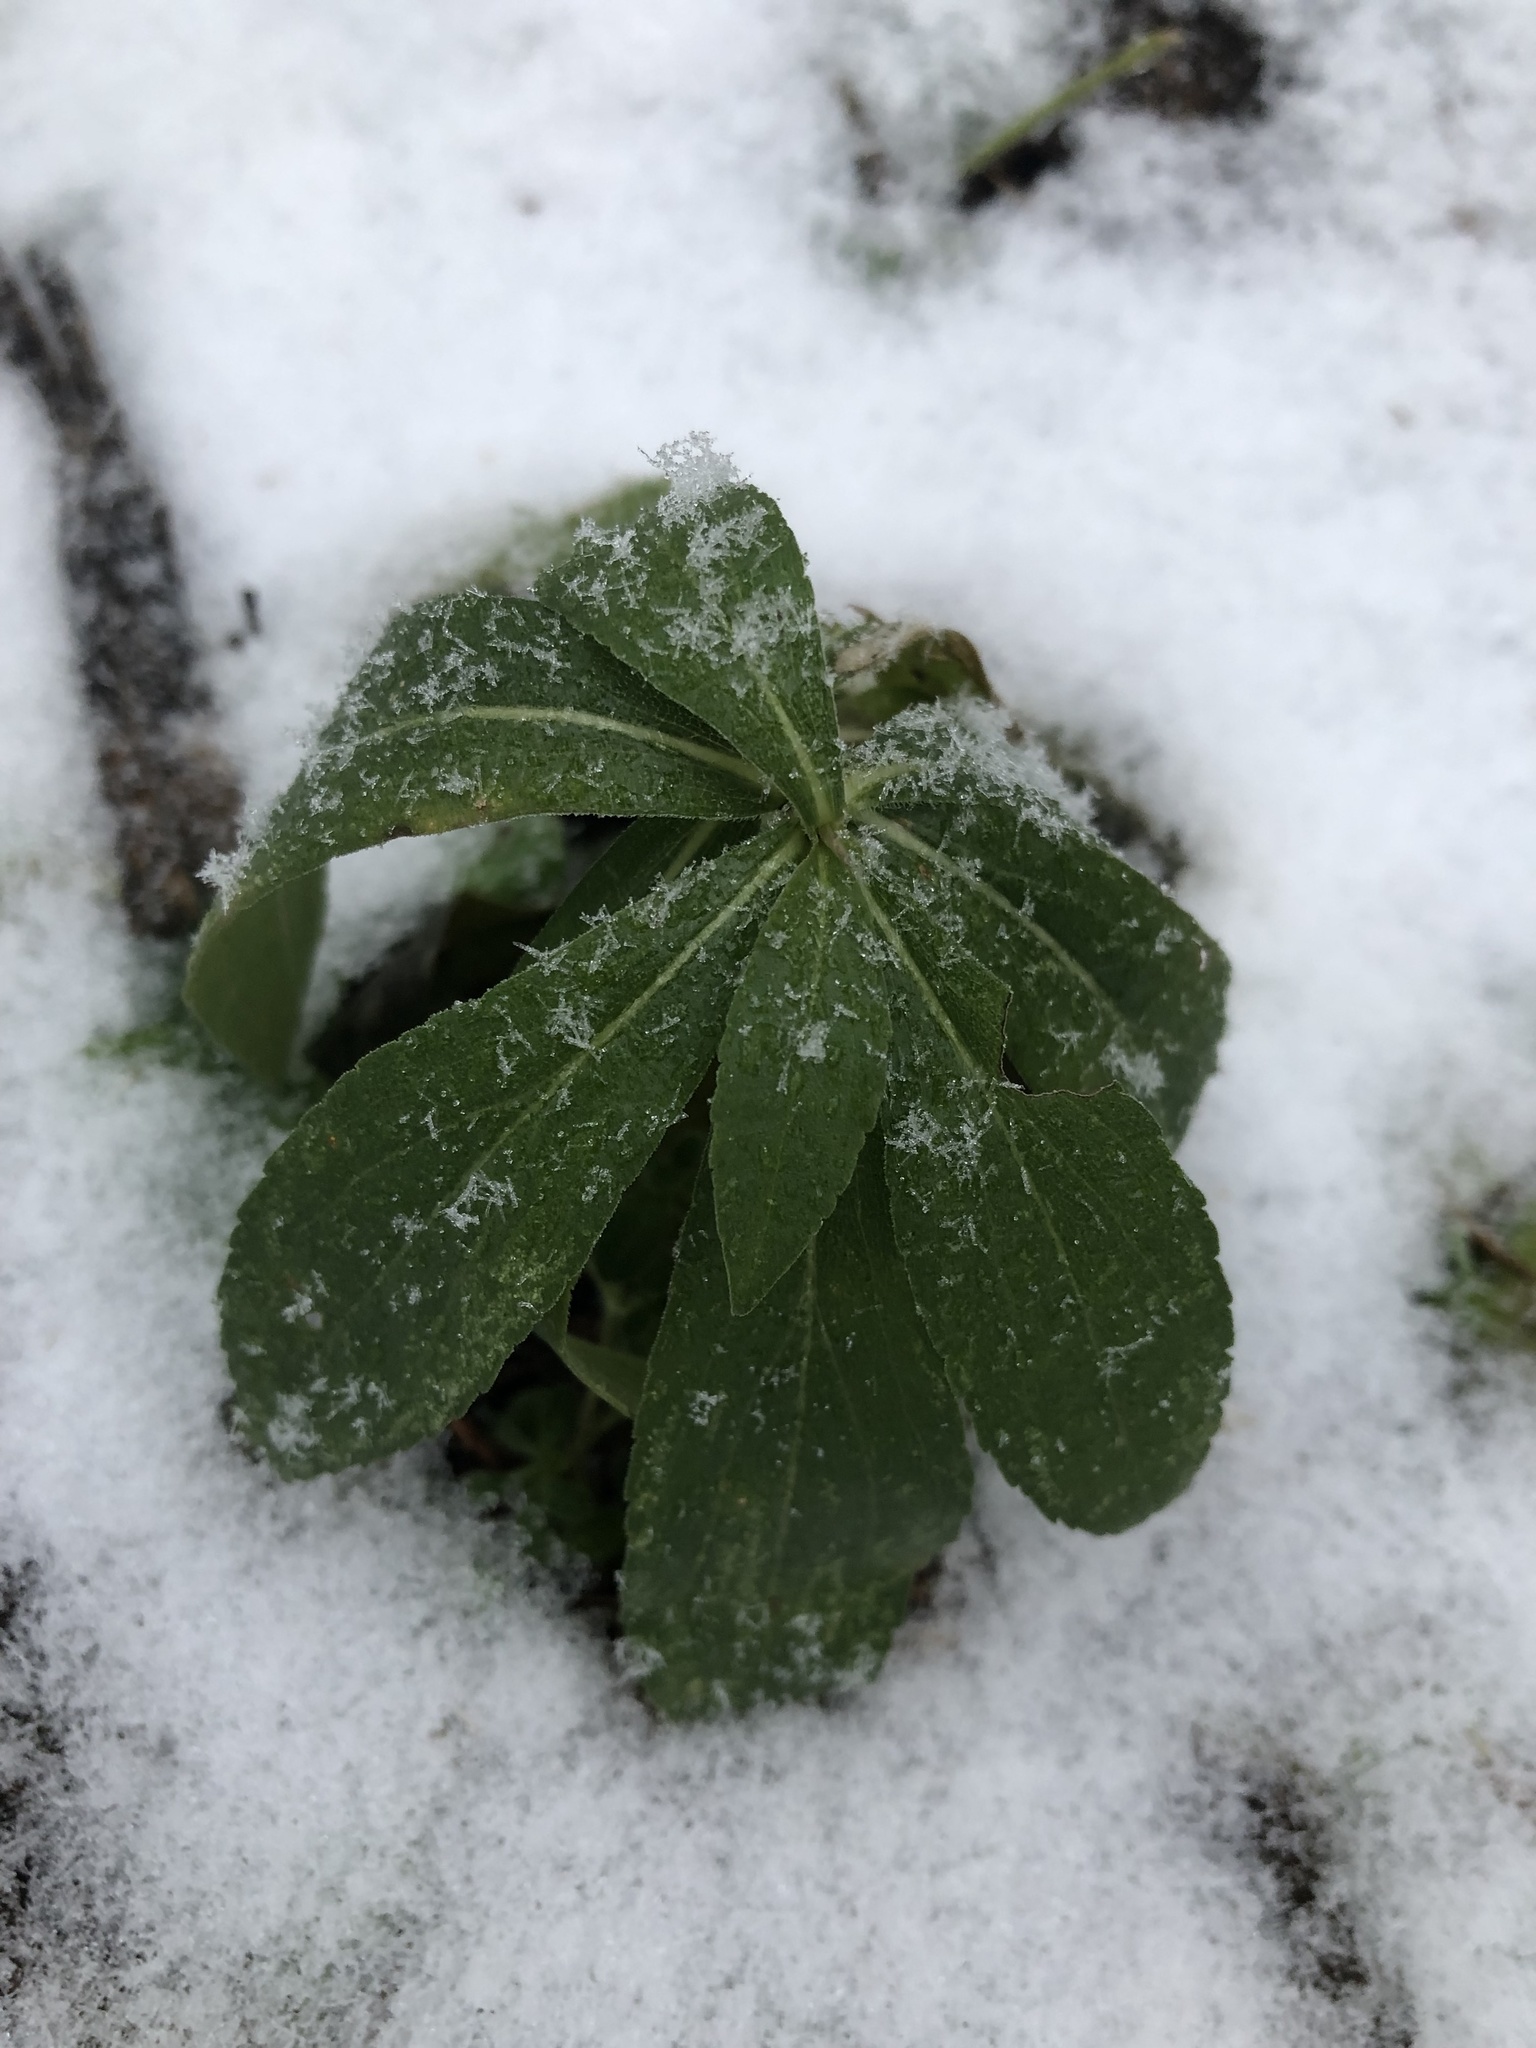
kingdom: Plantae
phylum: Tracheophyta
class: Magnoliopsida
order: Gentianales
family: Apocynaceae
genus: Vinca
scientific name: Vinca minor
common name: Lesser periwinkle
